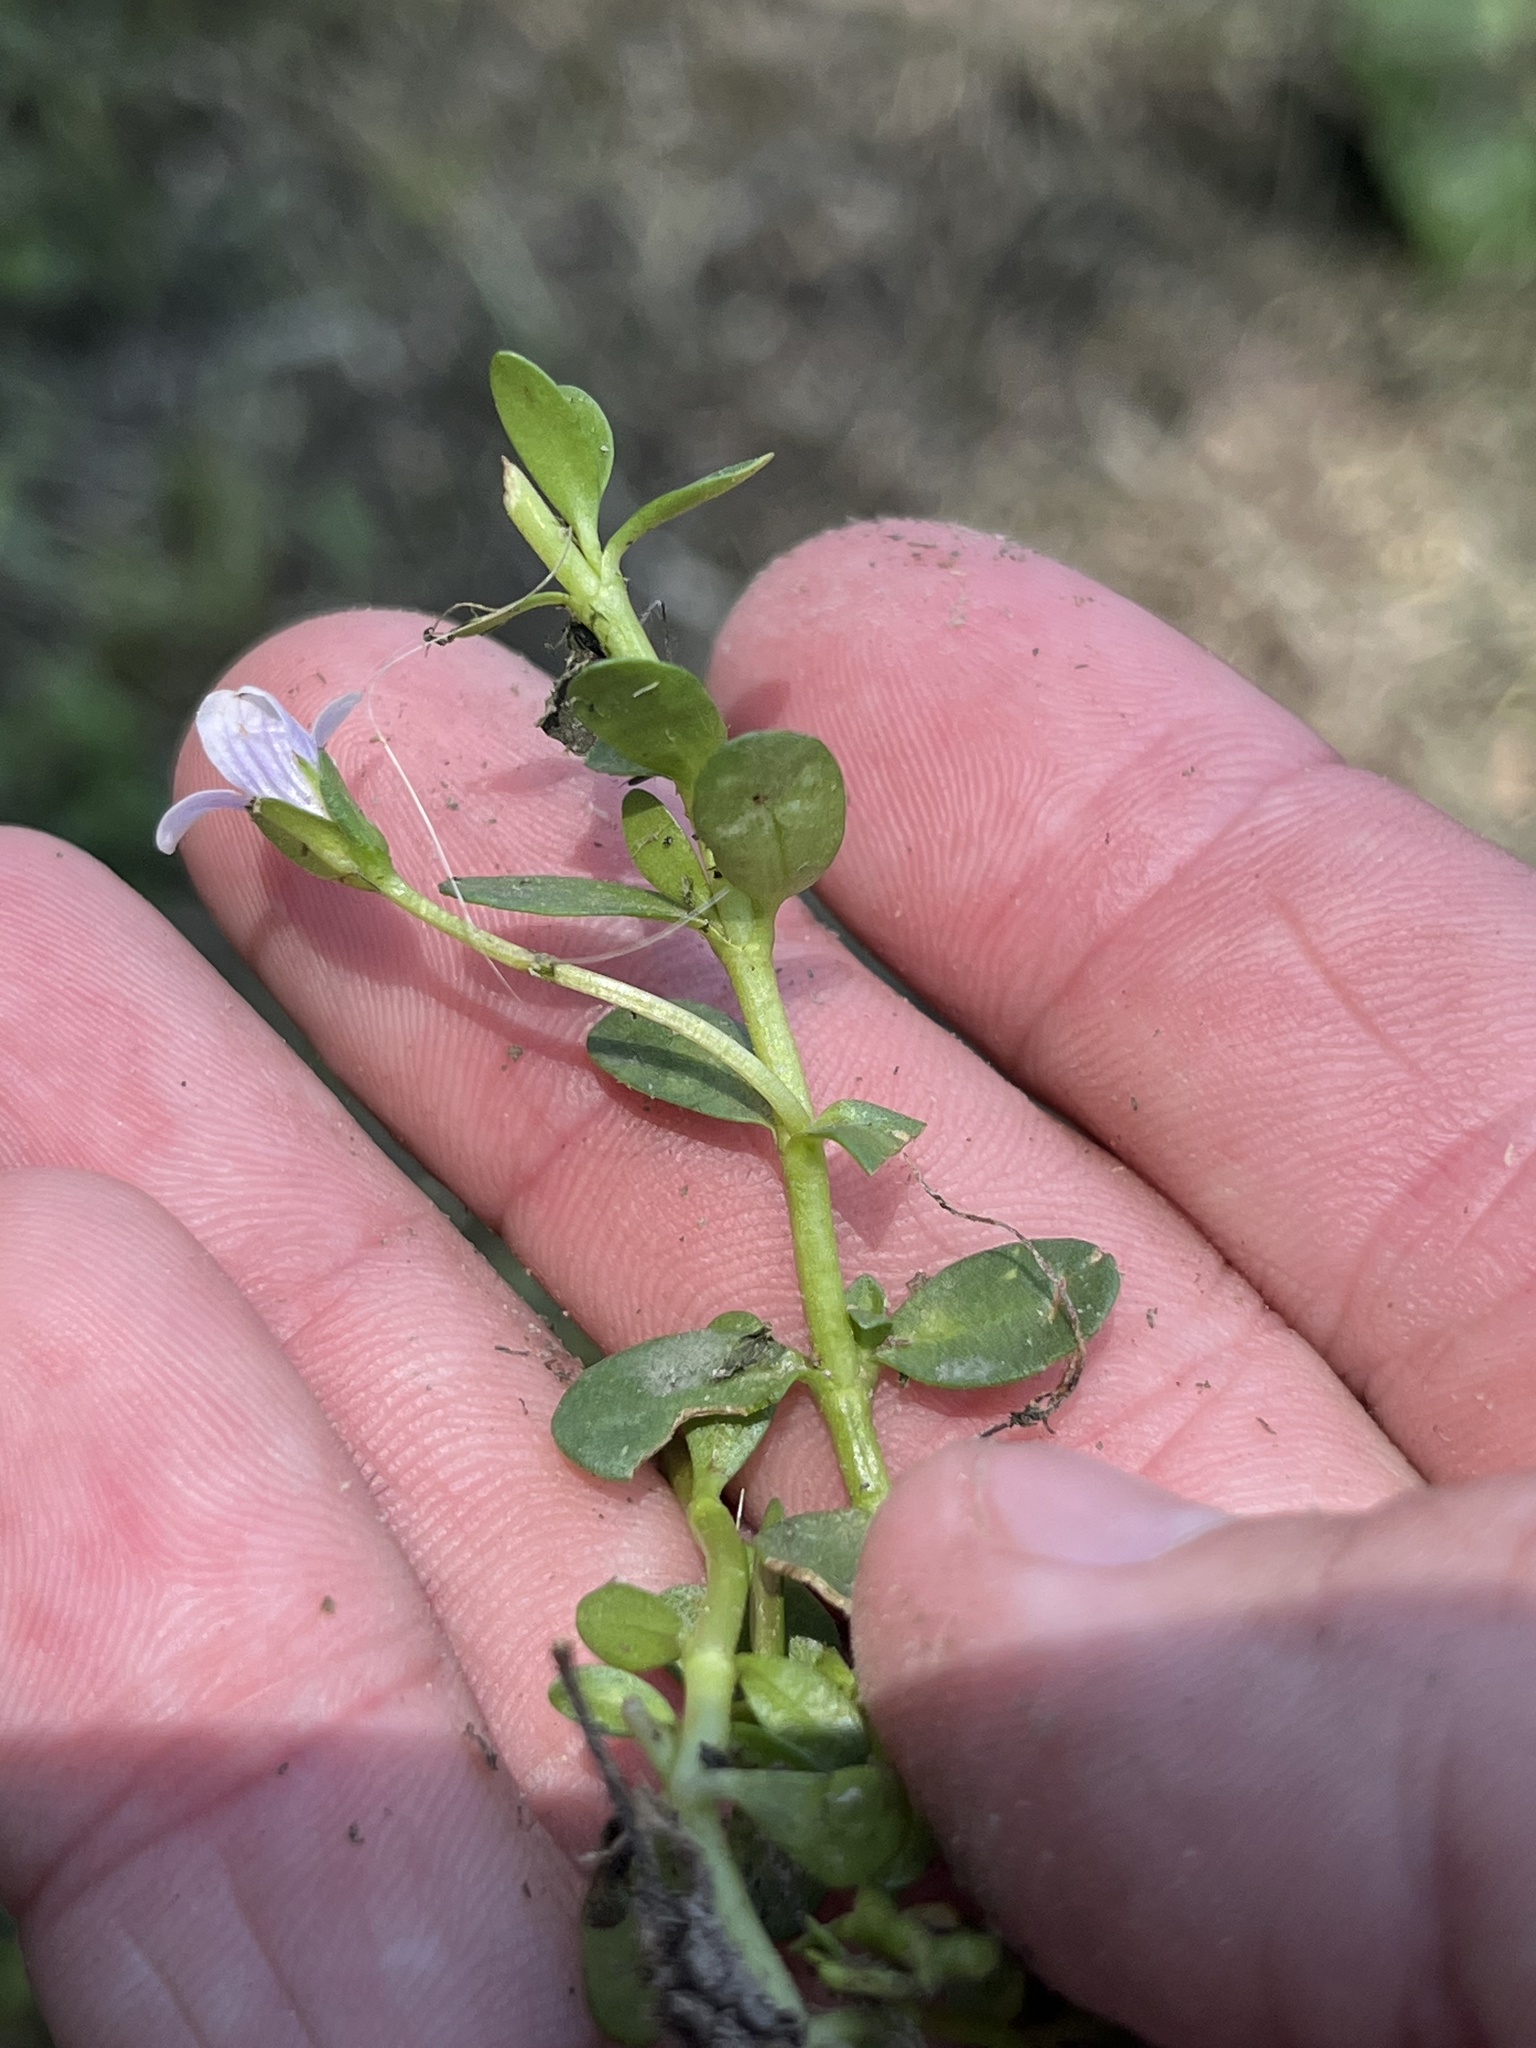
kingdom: Plantae
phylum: Tracheophyta
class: Magnoliopsida
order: Lamiales
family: Plantaginaceae
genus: Bacopa
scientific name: Bacopa monnieri
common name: Indian-pennywort
